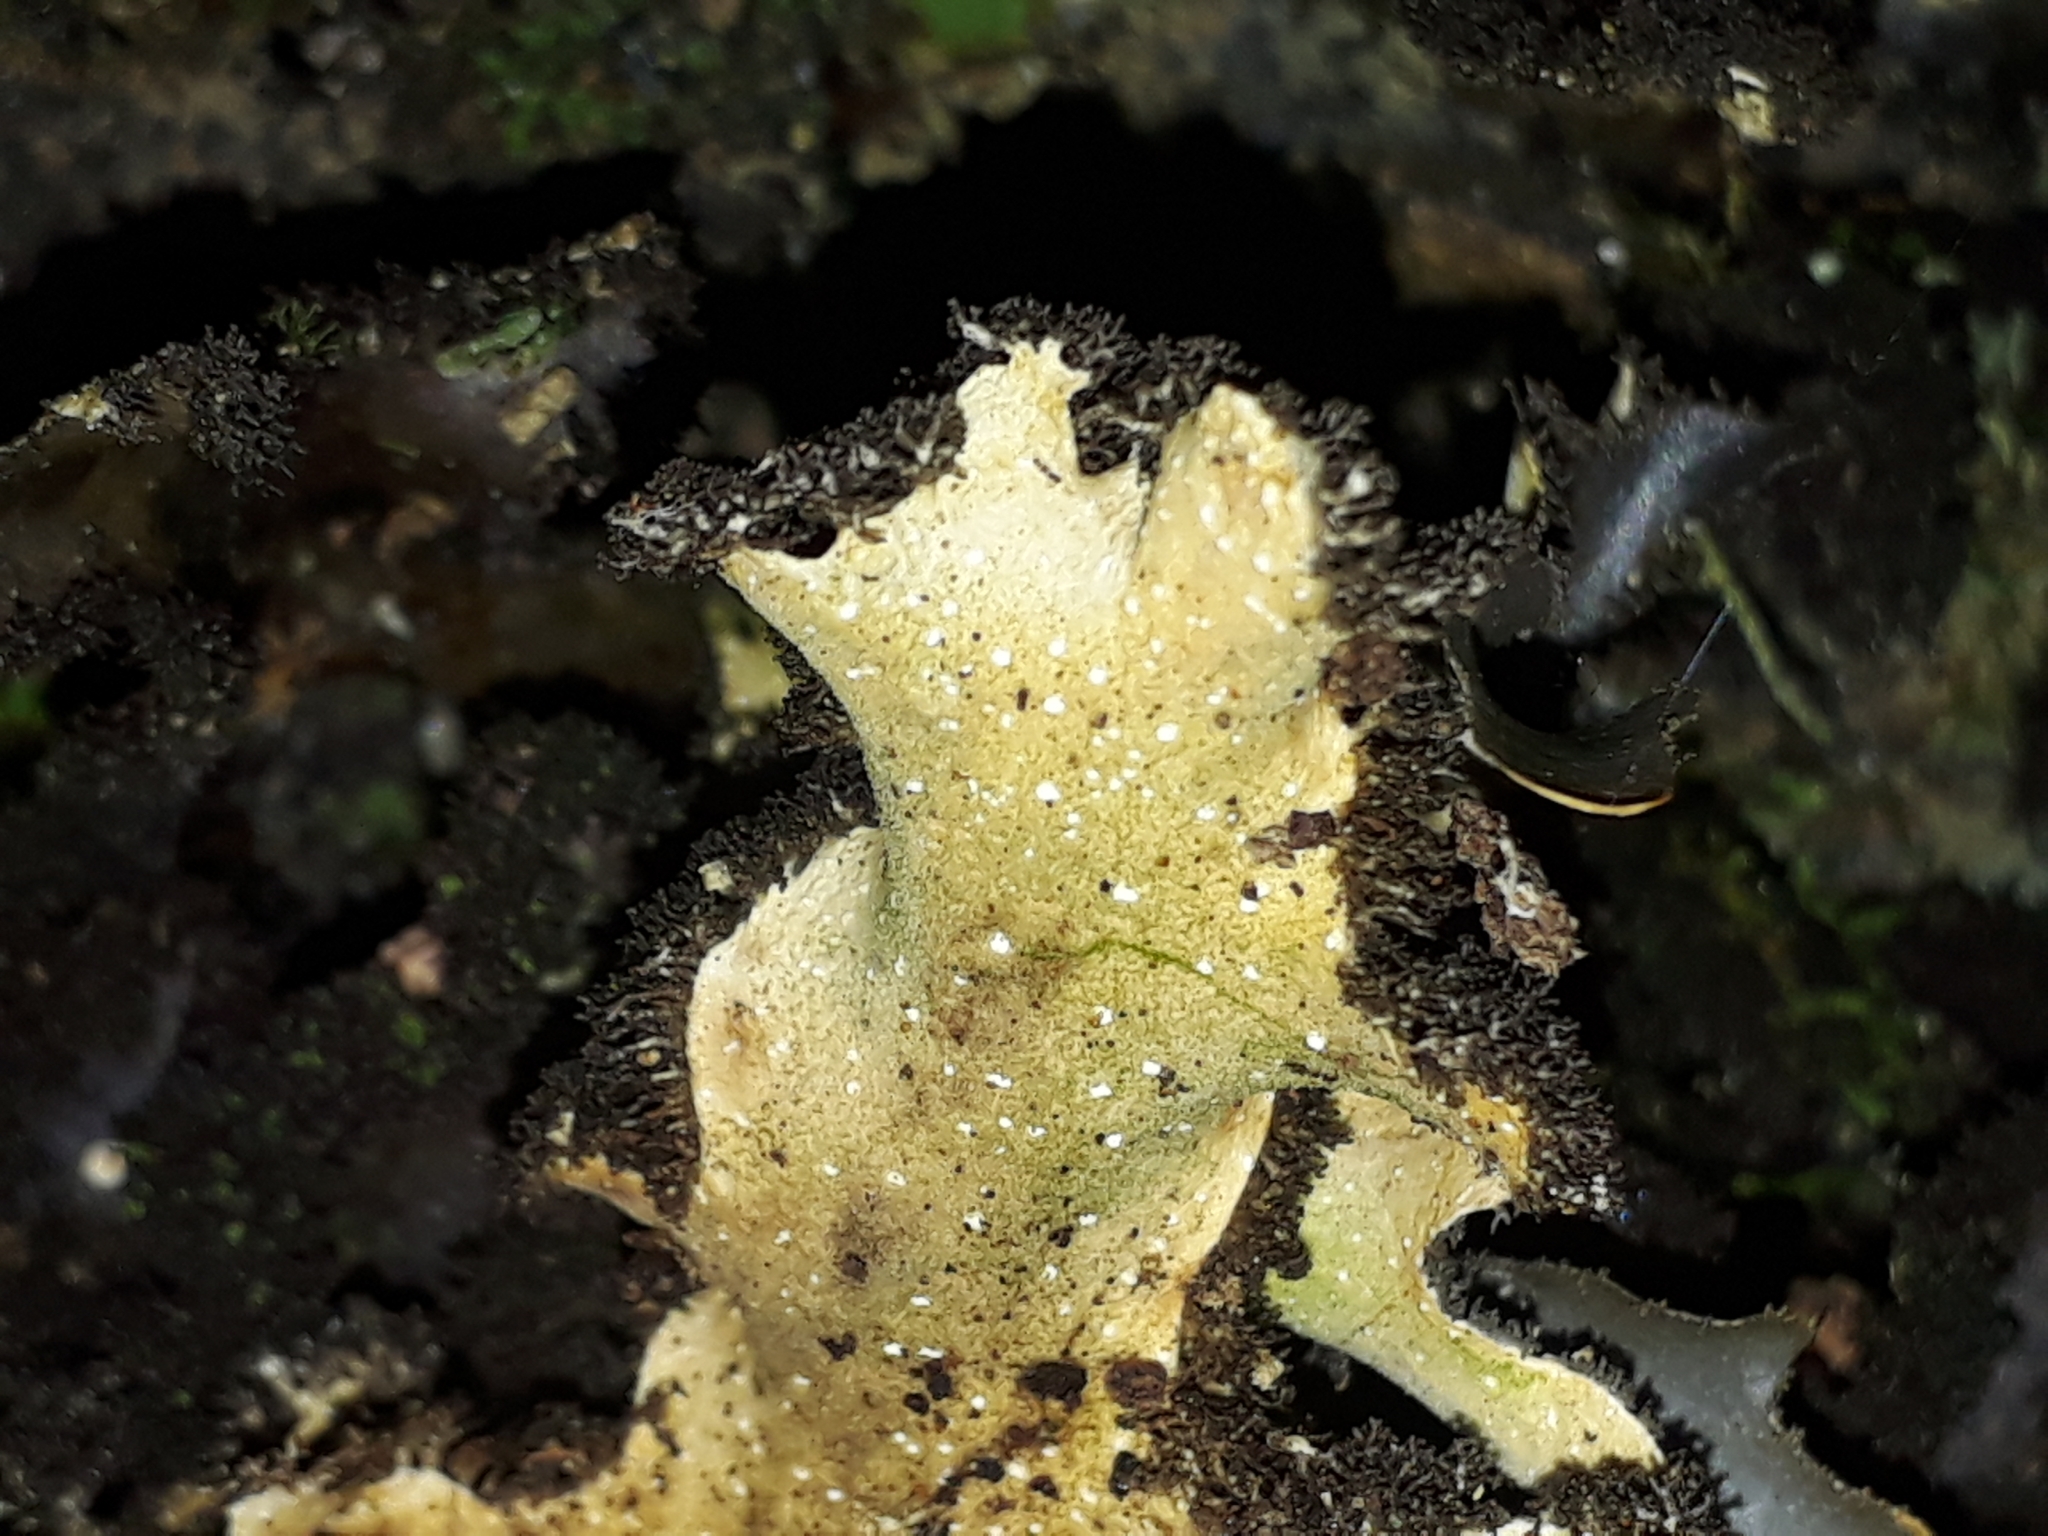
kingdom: Fungi
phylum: Ascomycota
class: Lecanoromycetes
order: Peltigerales
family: Lobariaceae
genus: Pseudocyphellaria
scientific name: Pseudocyphellaria dissimilis
